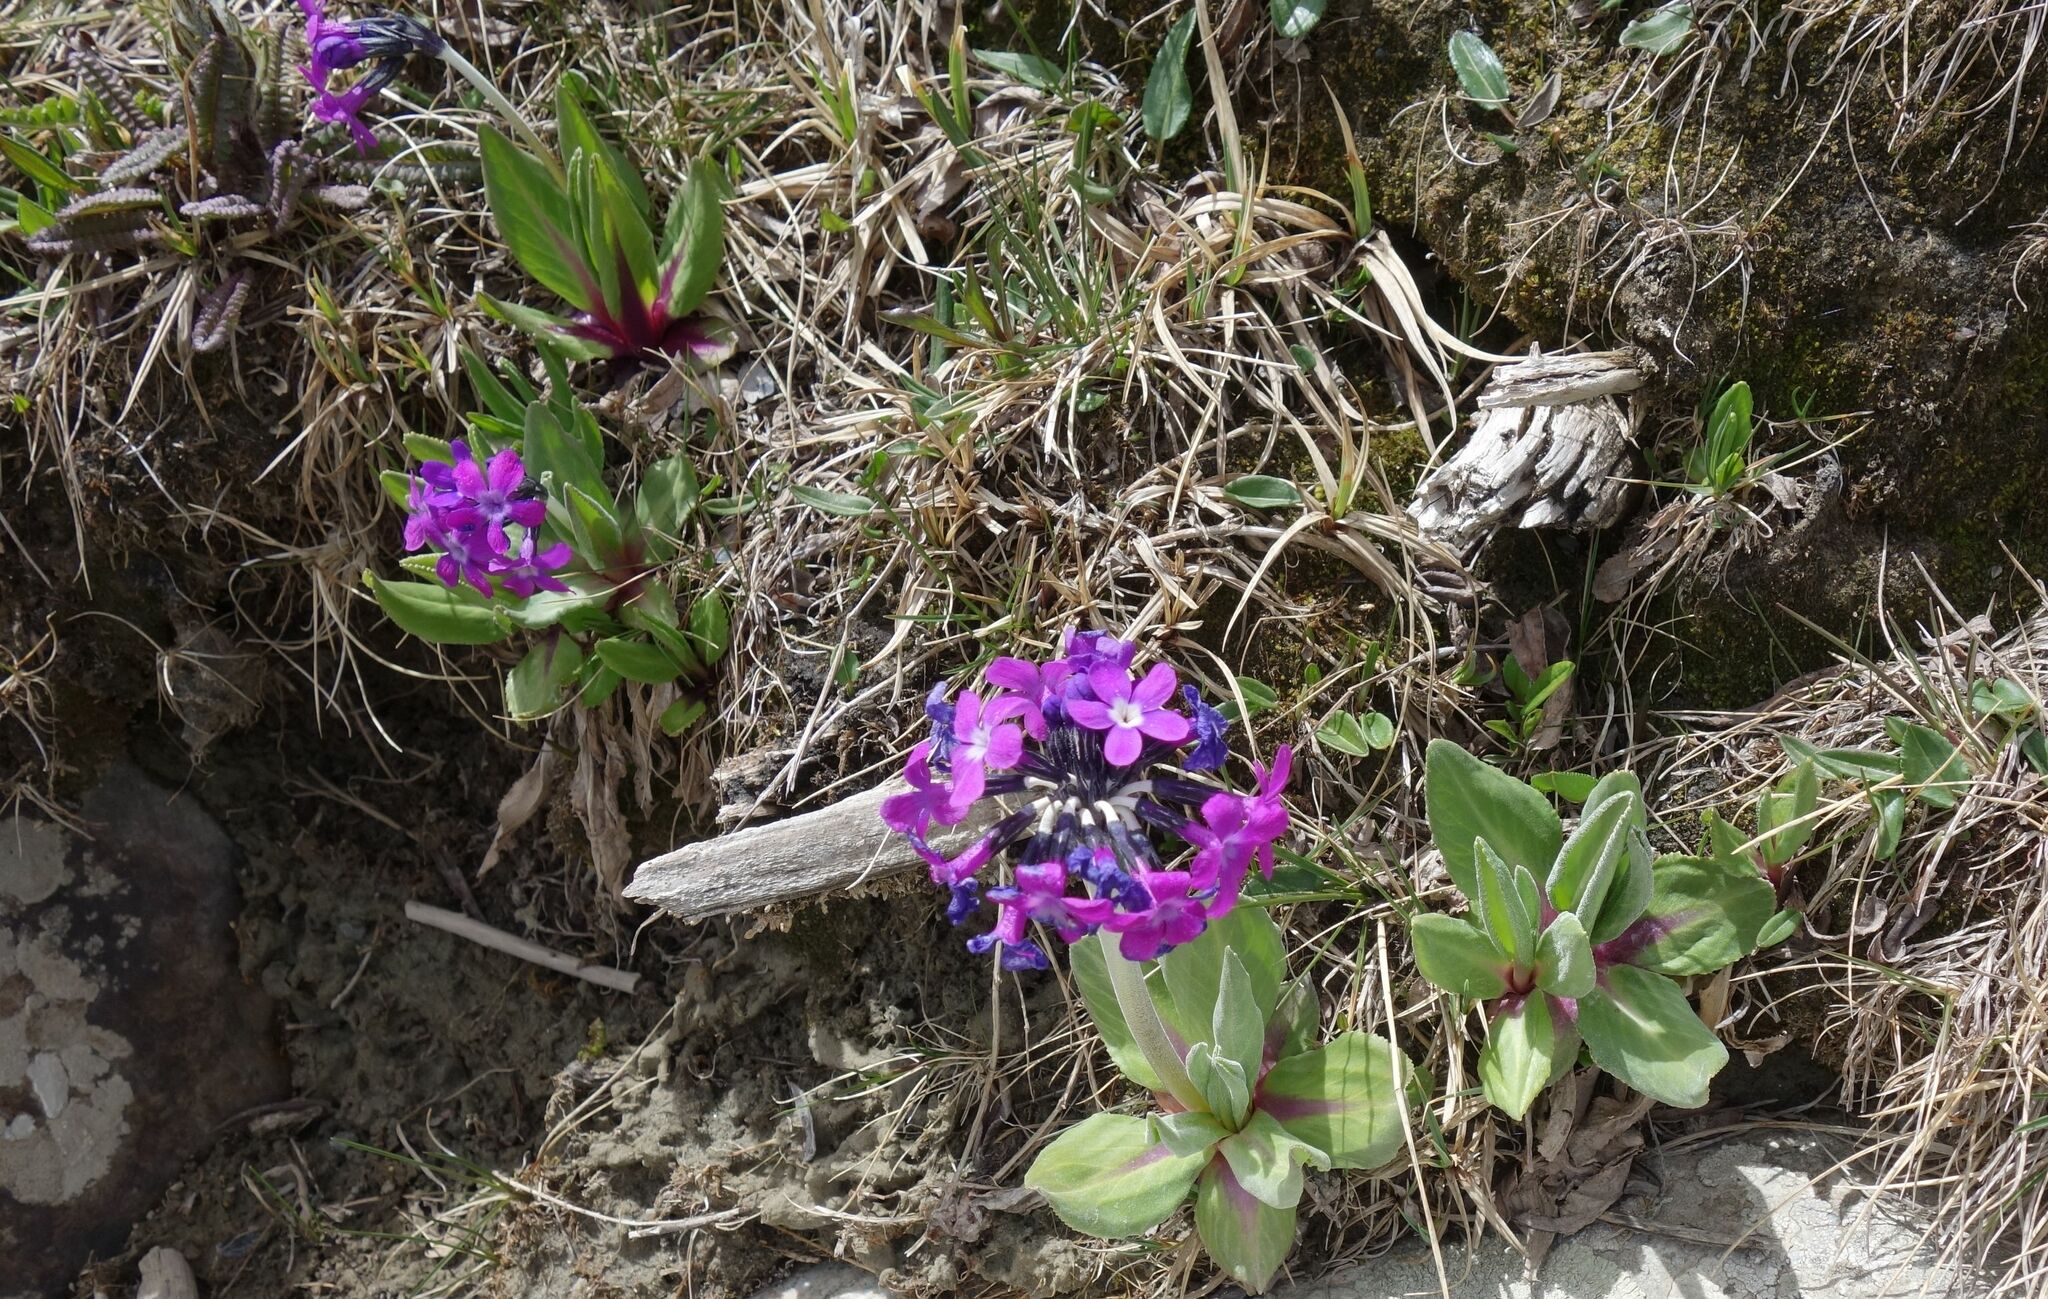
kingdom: Plantae
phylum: Tracheophyta
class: Magnoliopsida
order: Ericales
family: Primulaceae
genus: Primula
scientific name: Primula nivalis
